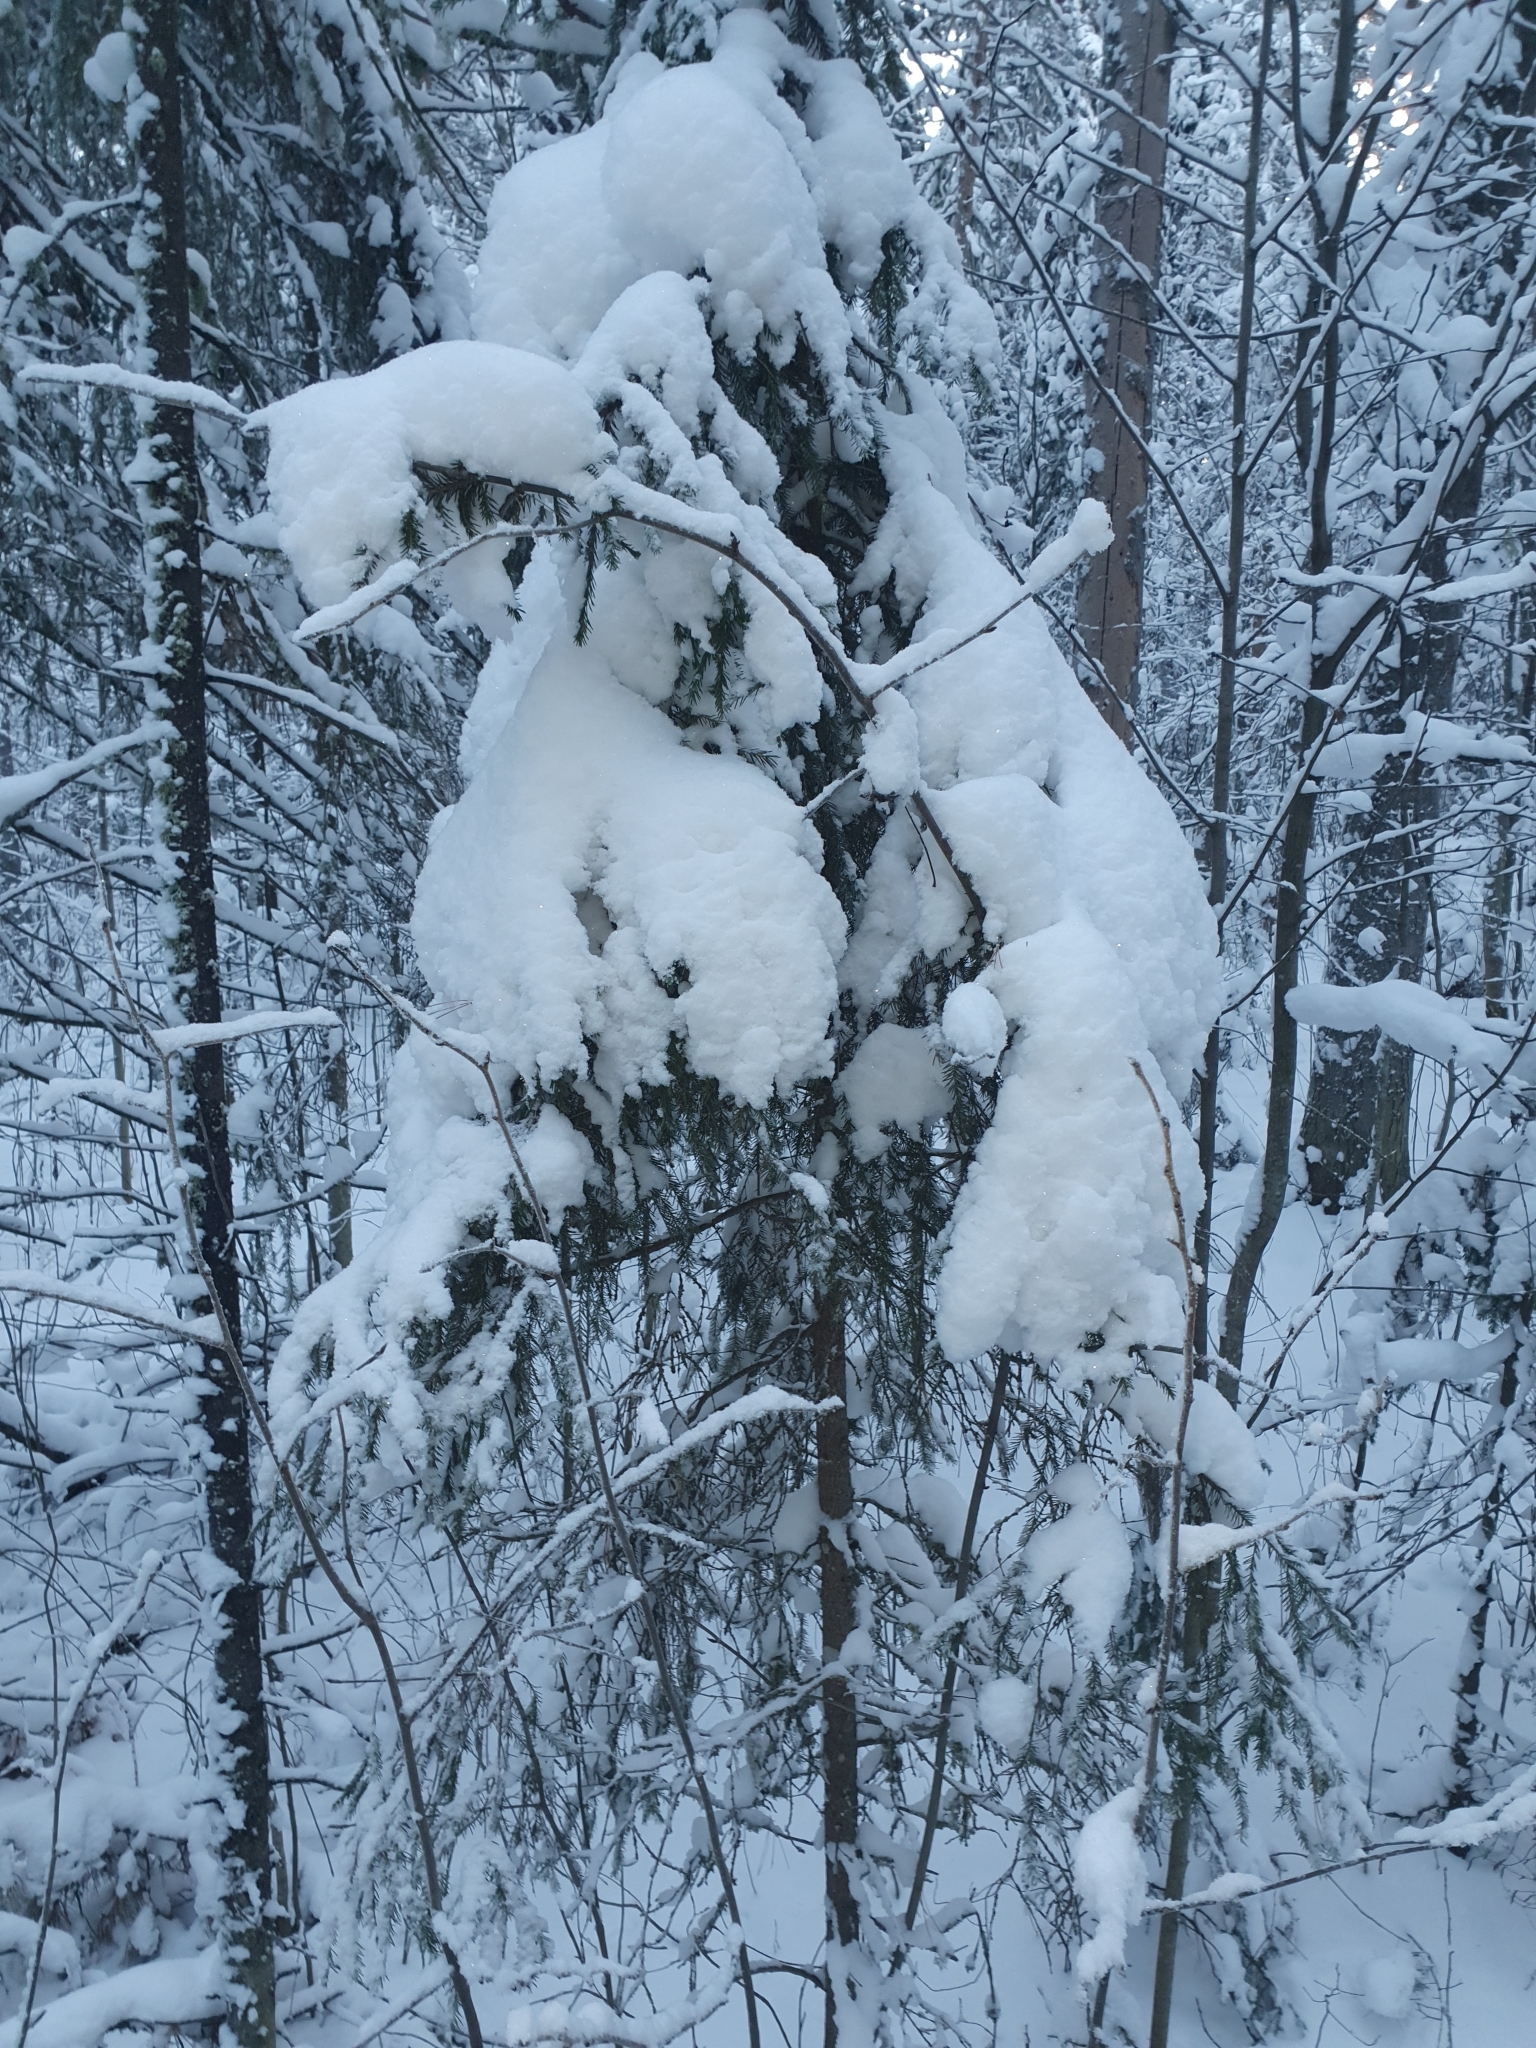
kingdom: Plantae
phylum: Tracheophyta
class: Pinopsida
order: Pinales
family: Pinaceae
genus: Picea
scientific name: Picea obovata
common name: Siberian spruce
